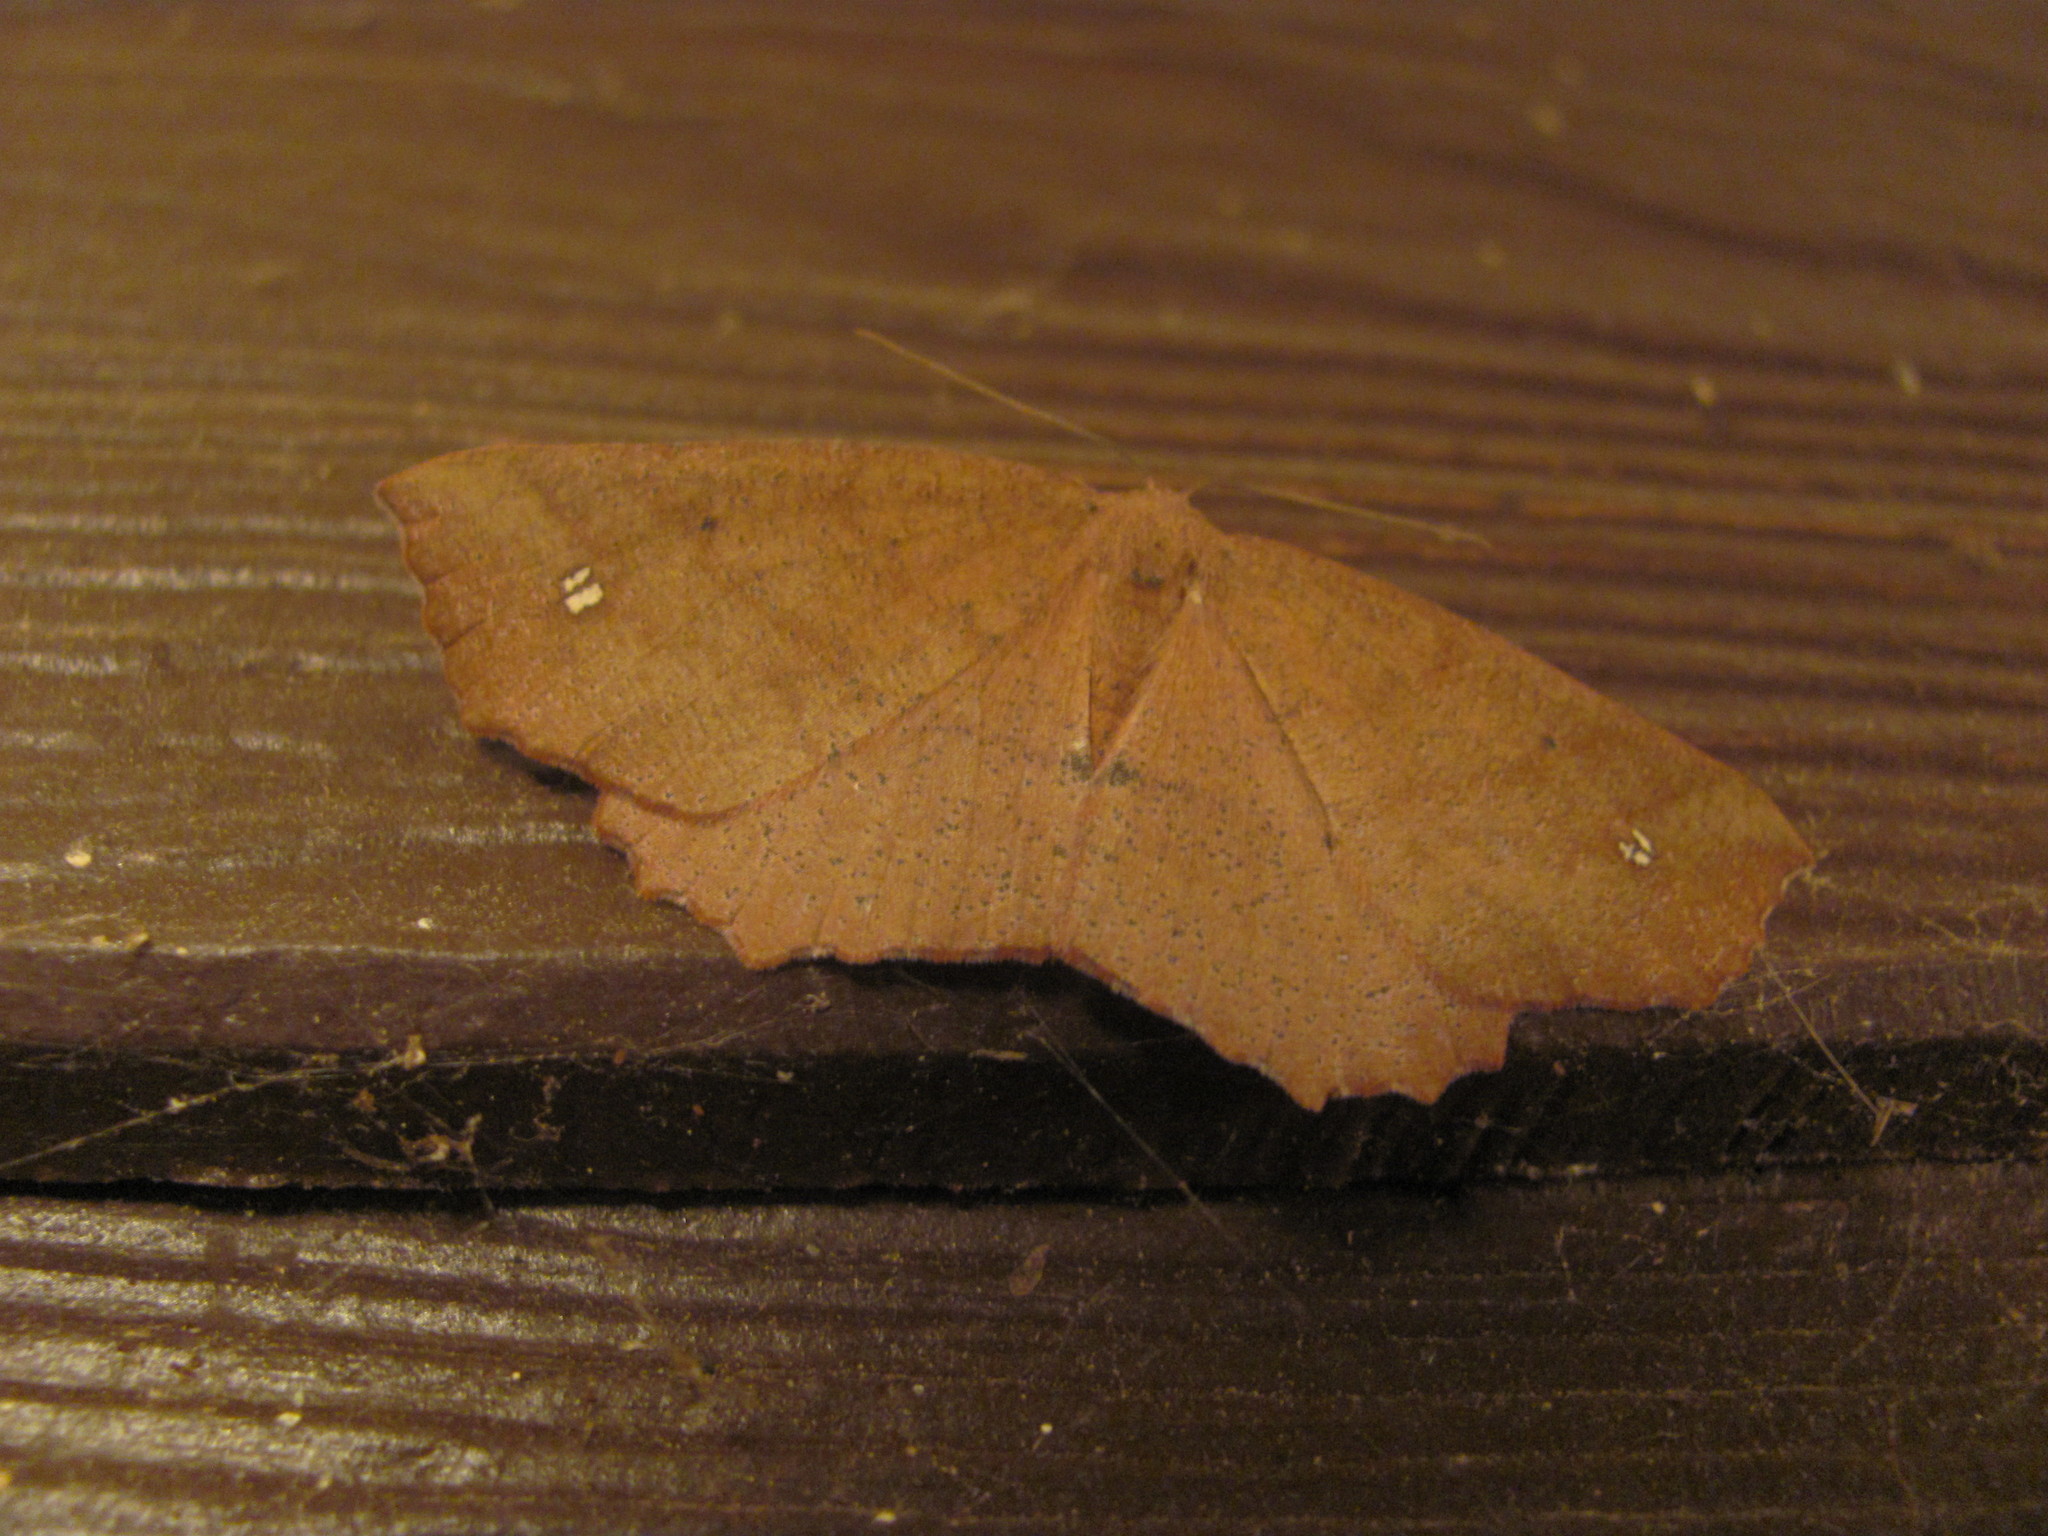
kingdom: Animalia
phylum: Arthropoda
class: Insecta
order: Lepidoptera
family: Geometridae
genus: Xyridacma
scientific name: Xyridacma ustaria
